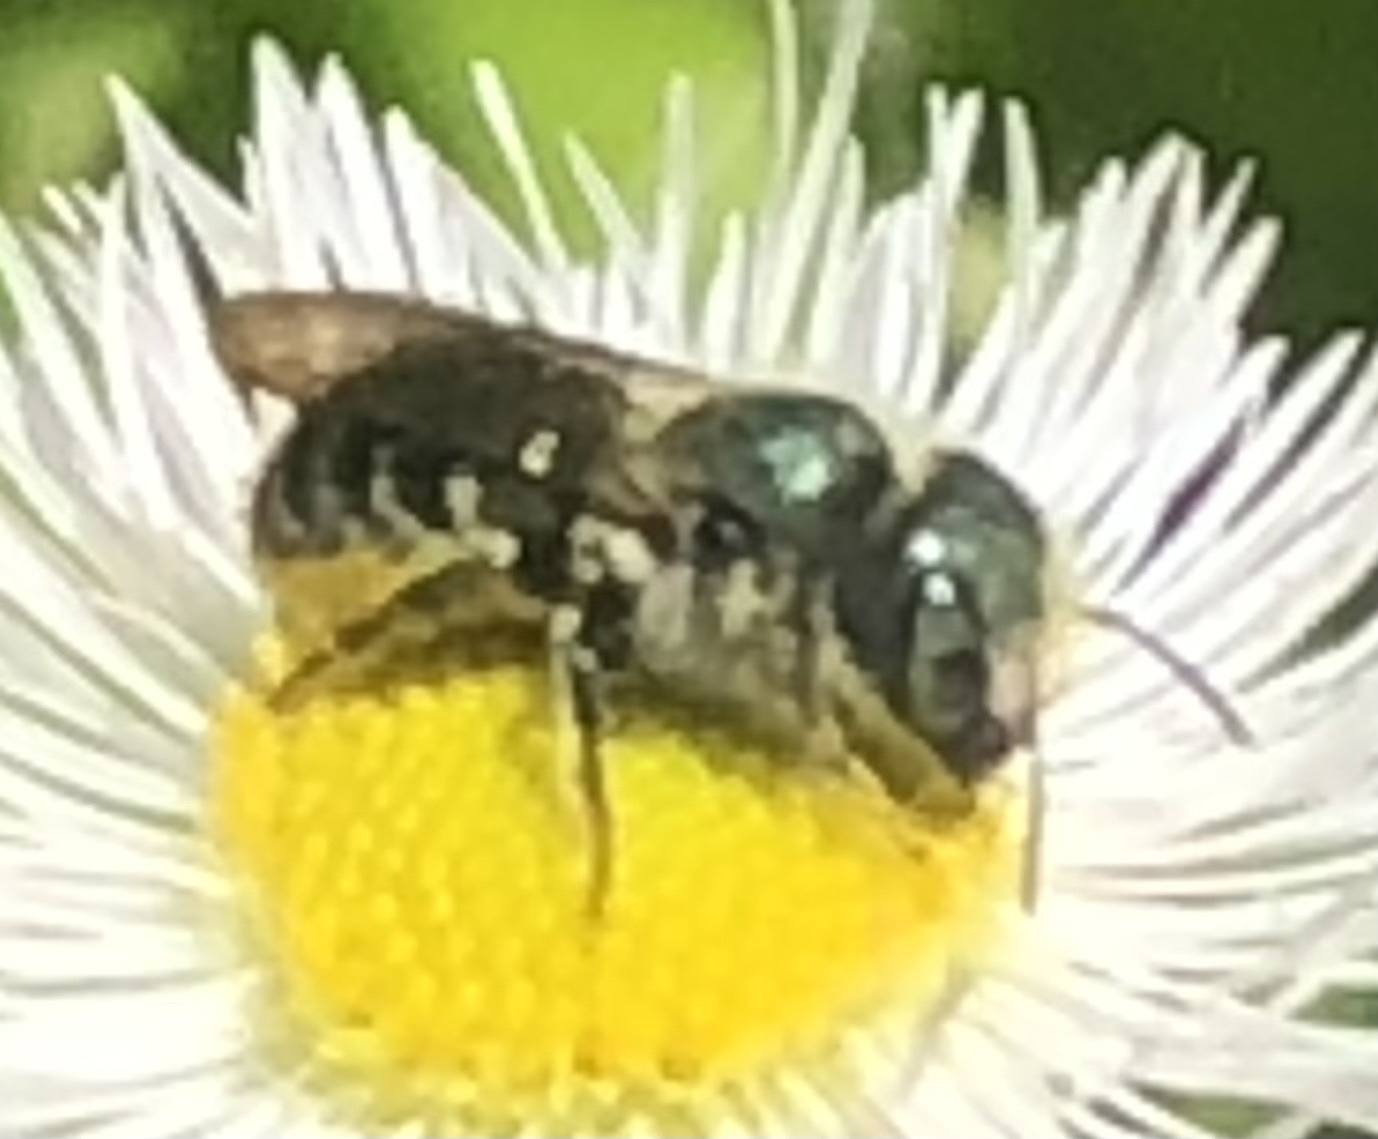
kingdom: Animalia
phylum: Arthropoda
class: Insecta
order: Hymenoptera
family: Megachilidae
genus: Osmia
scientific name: Osmia georgica
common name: Georgia mason
